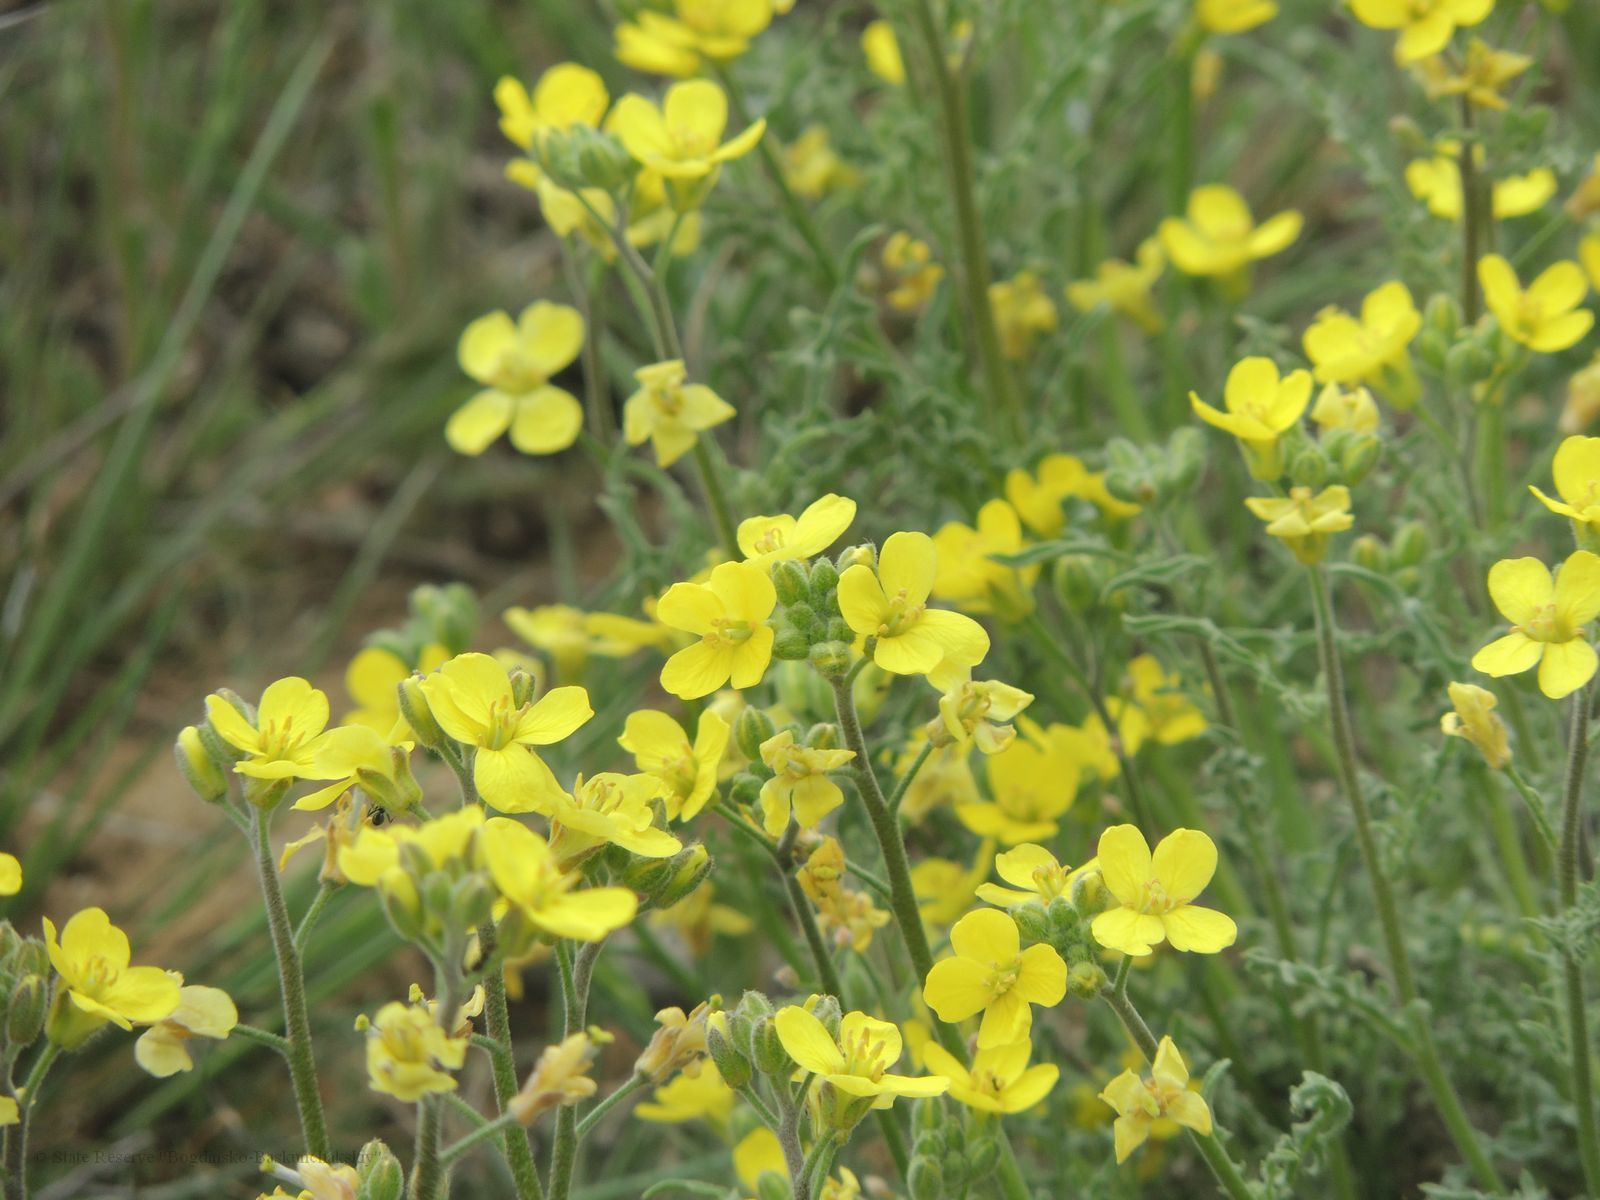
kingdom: Plantae
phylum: Tracheophyta
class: Magnoliopsida
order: Brassicales
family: Brassicaceae
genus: Sterigmostemum
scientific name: Sterigmostemum caspicum
